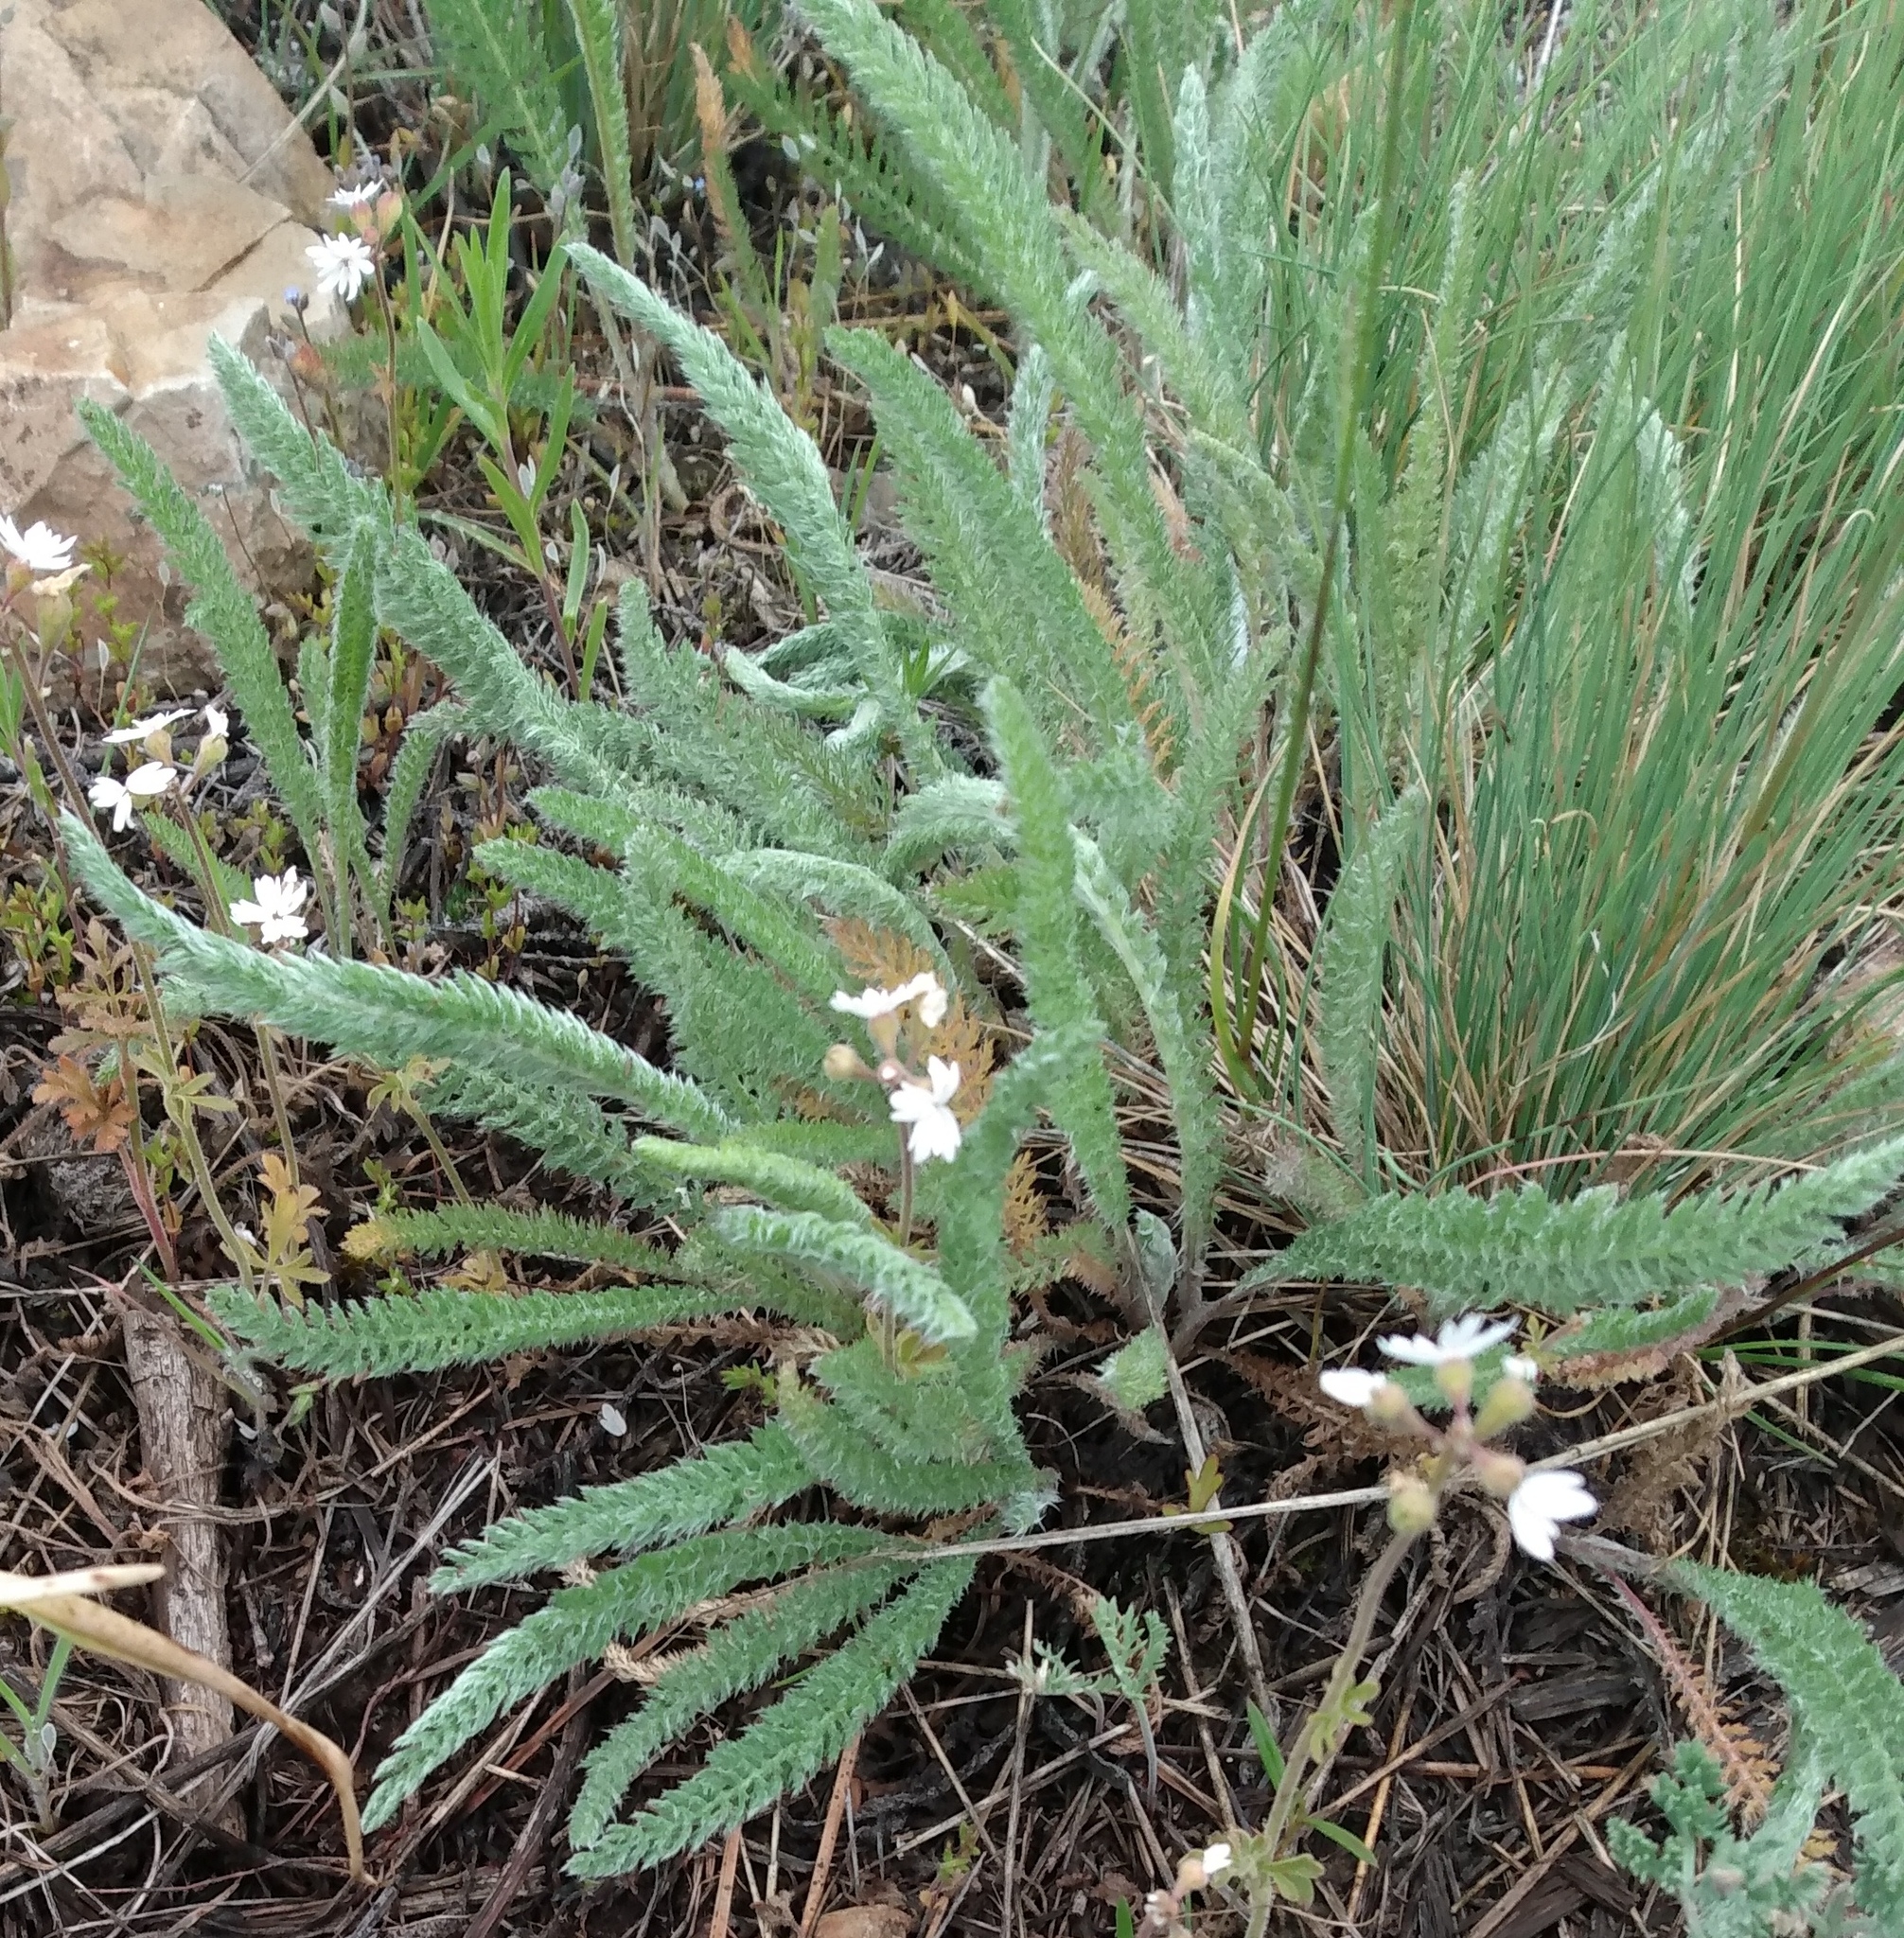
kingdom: Plantae
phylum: Tracheophyta
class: Magnoliopsida
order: Asterales
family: Asteraceae
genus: Achillea
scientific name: Achillea millefolium
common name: Yarrow
